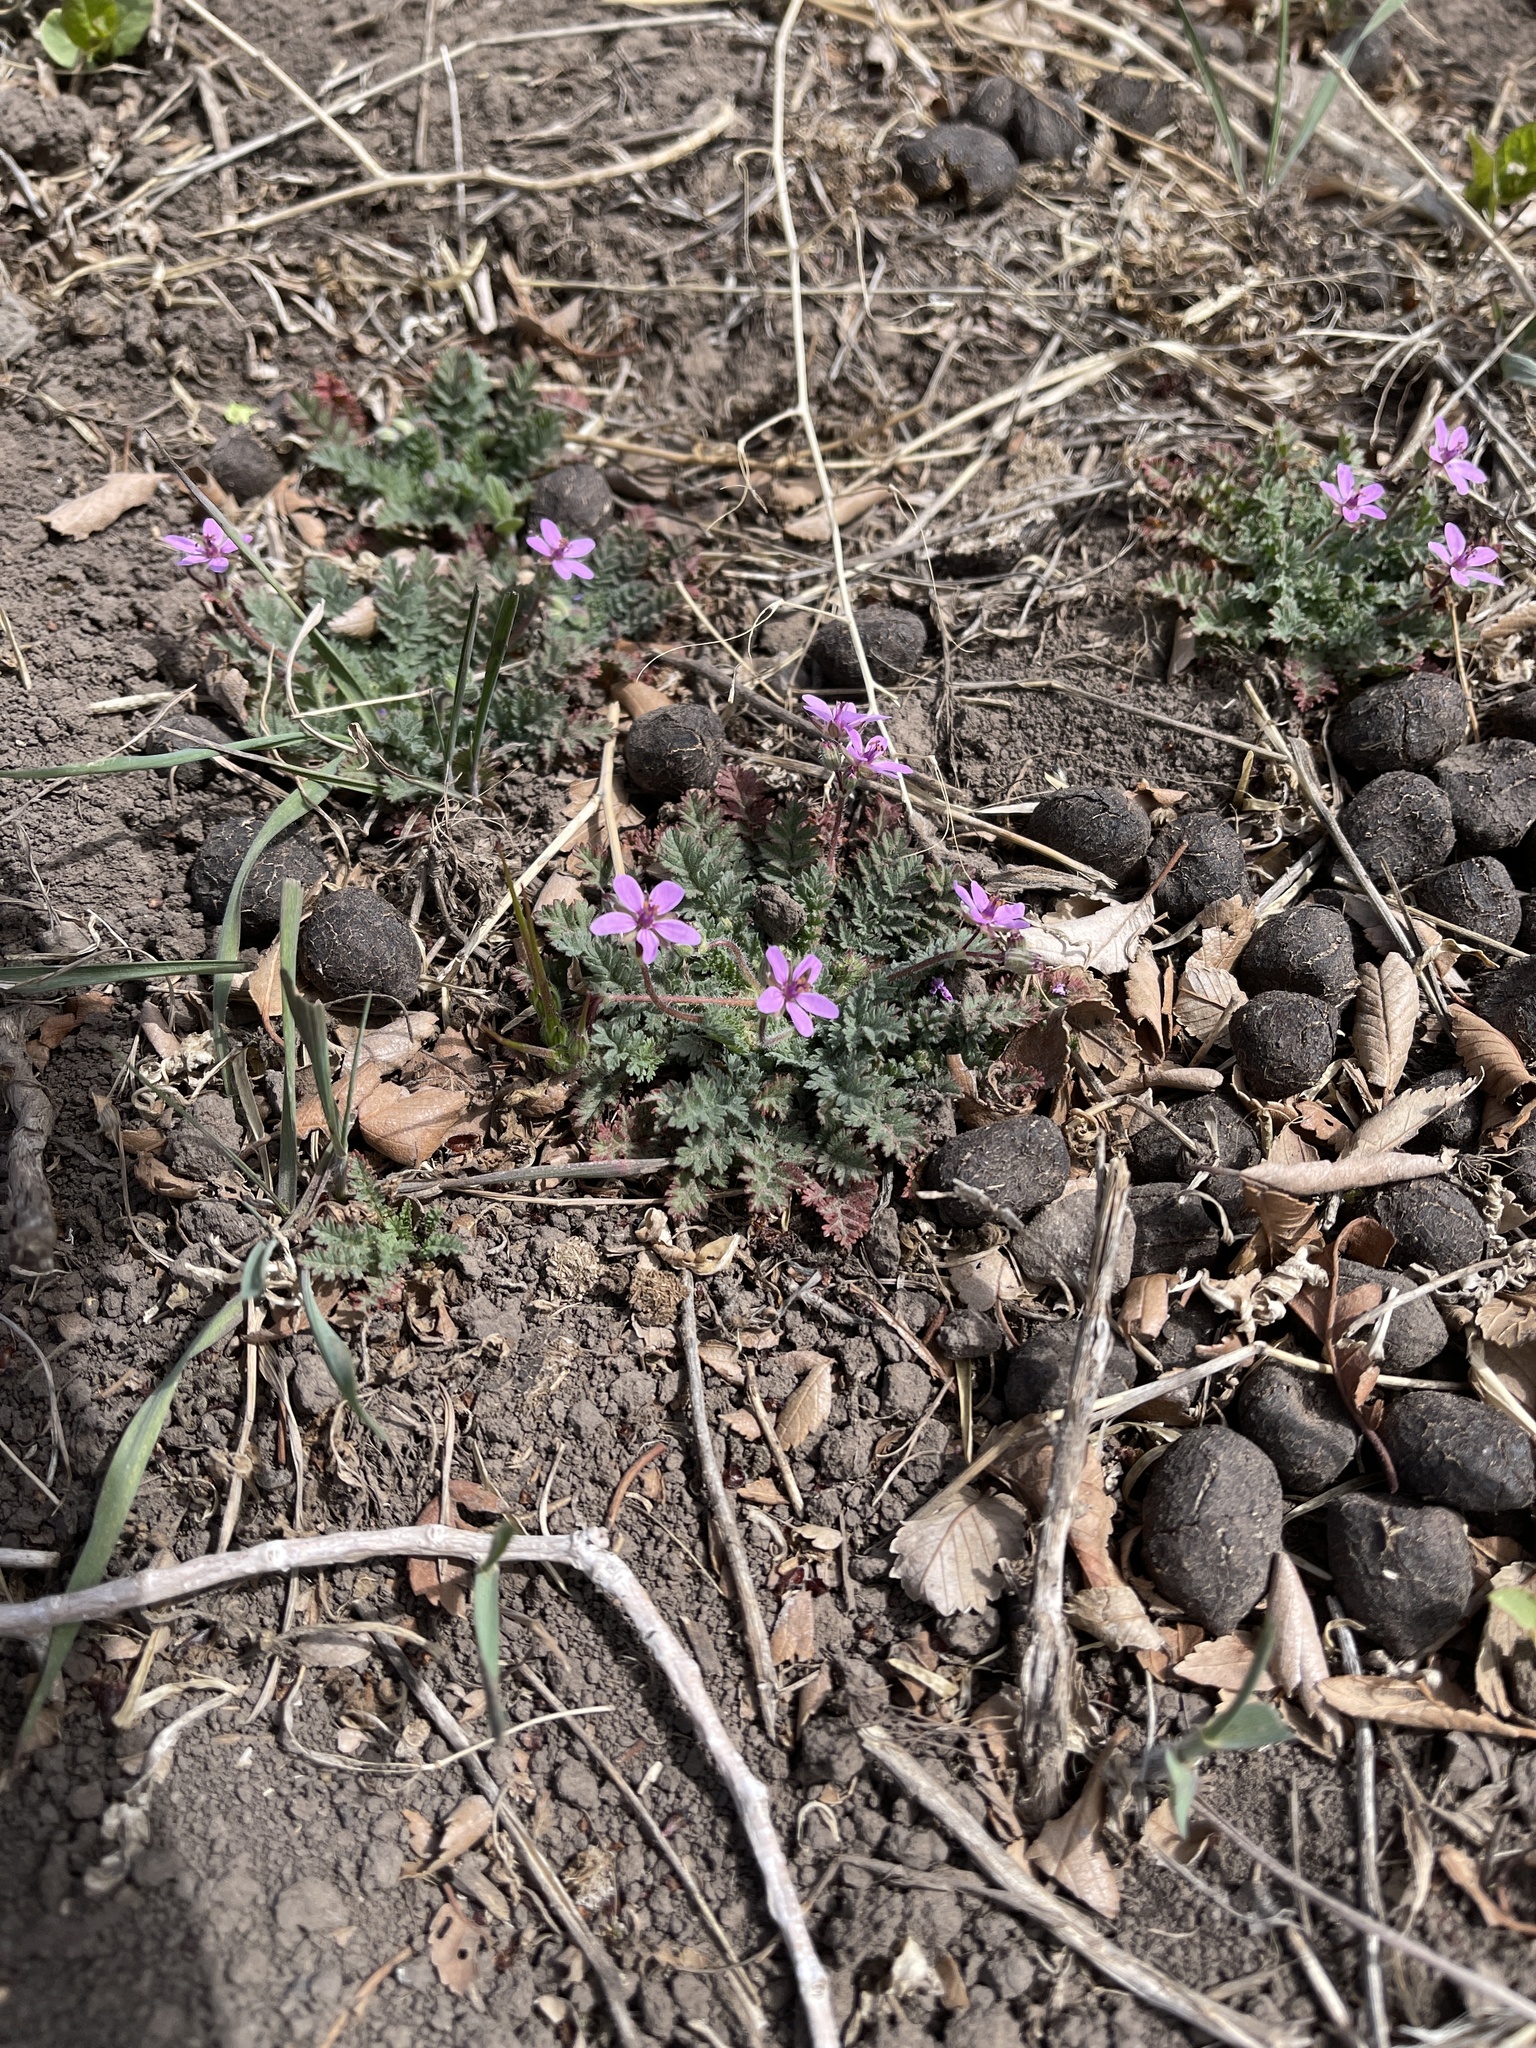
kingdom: Plantae
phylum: Tracheophyta
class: Magnoliopsida
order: Geraniales
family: Geraniaceae
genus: Erodium
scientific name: Erodium cicutarium
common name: Common stork's-bill
